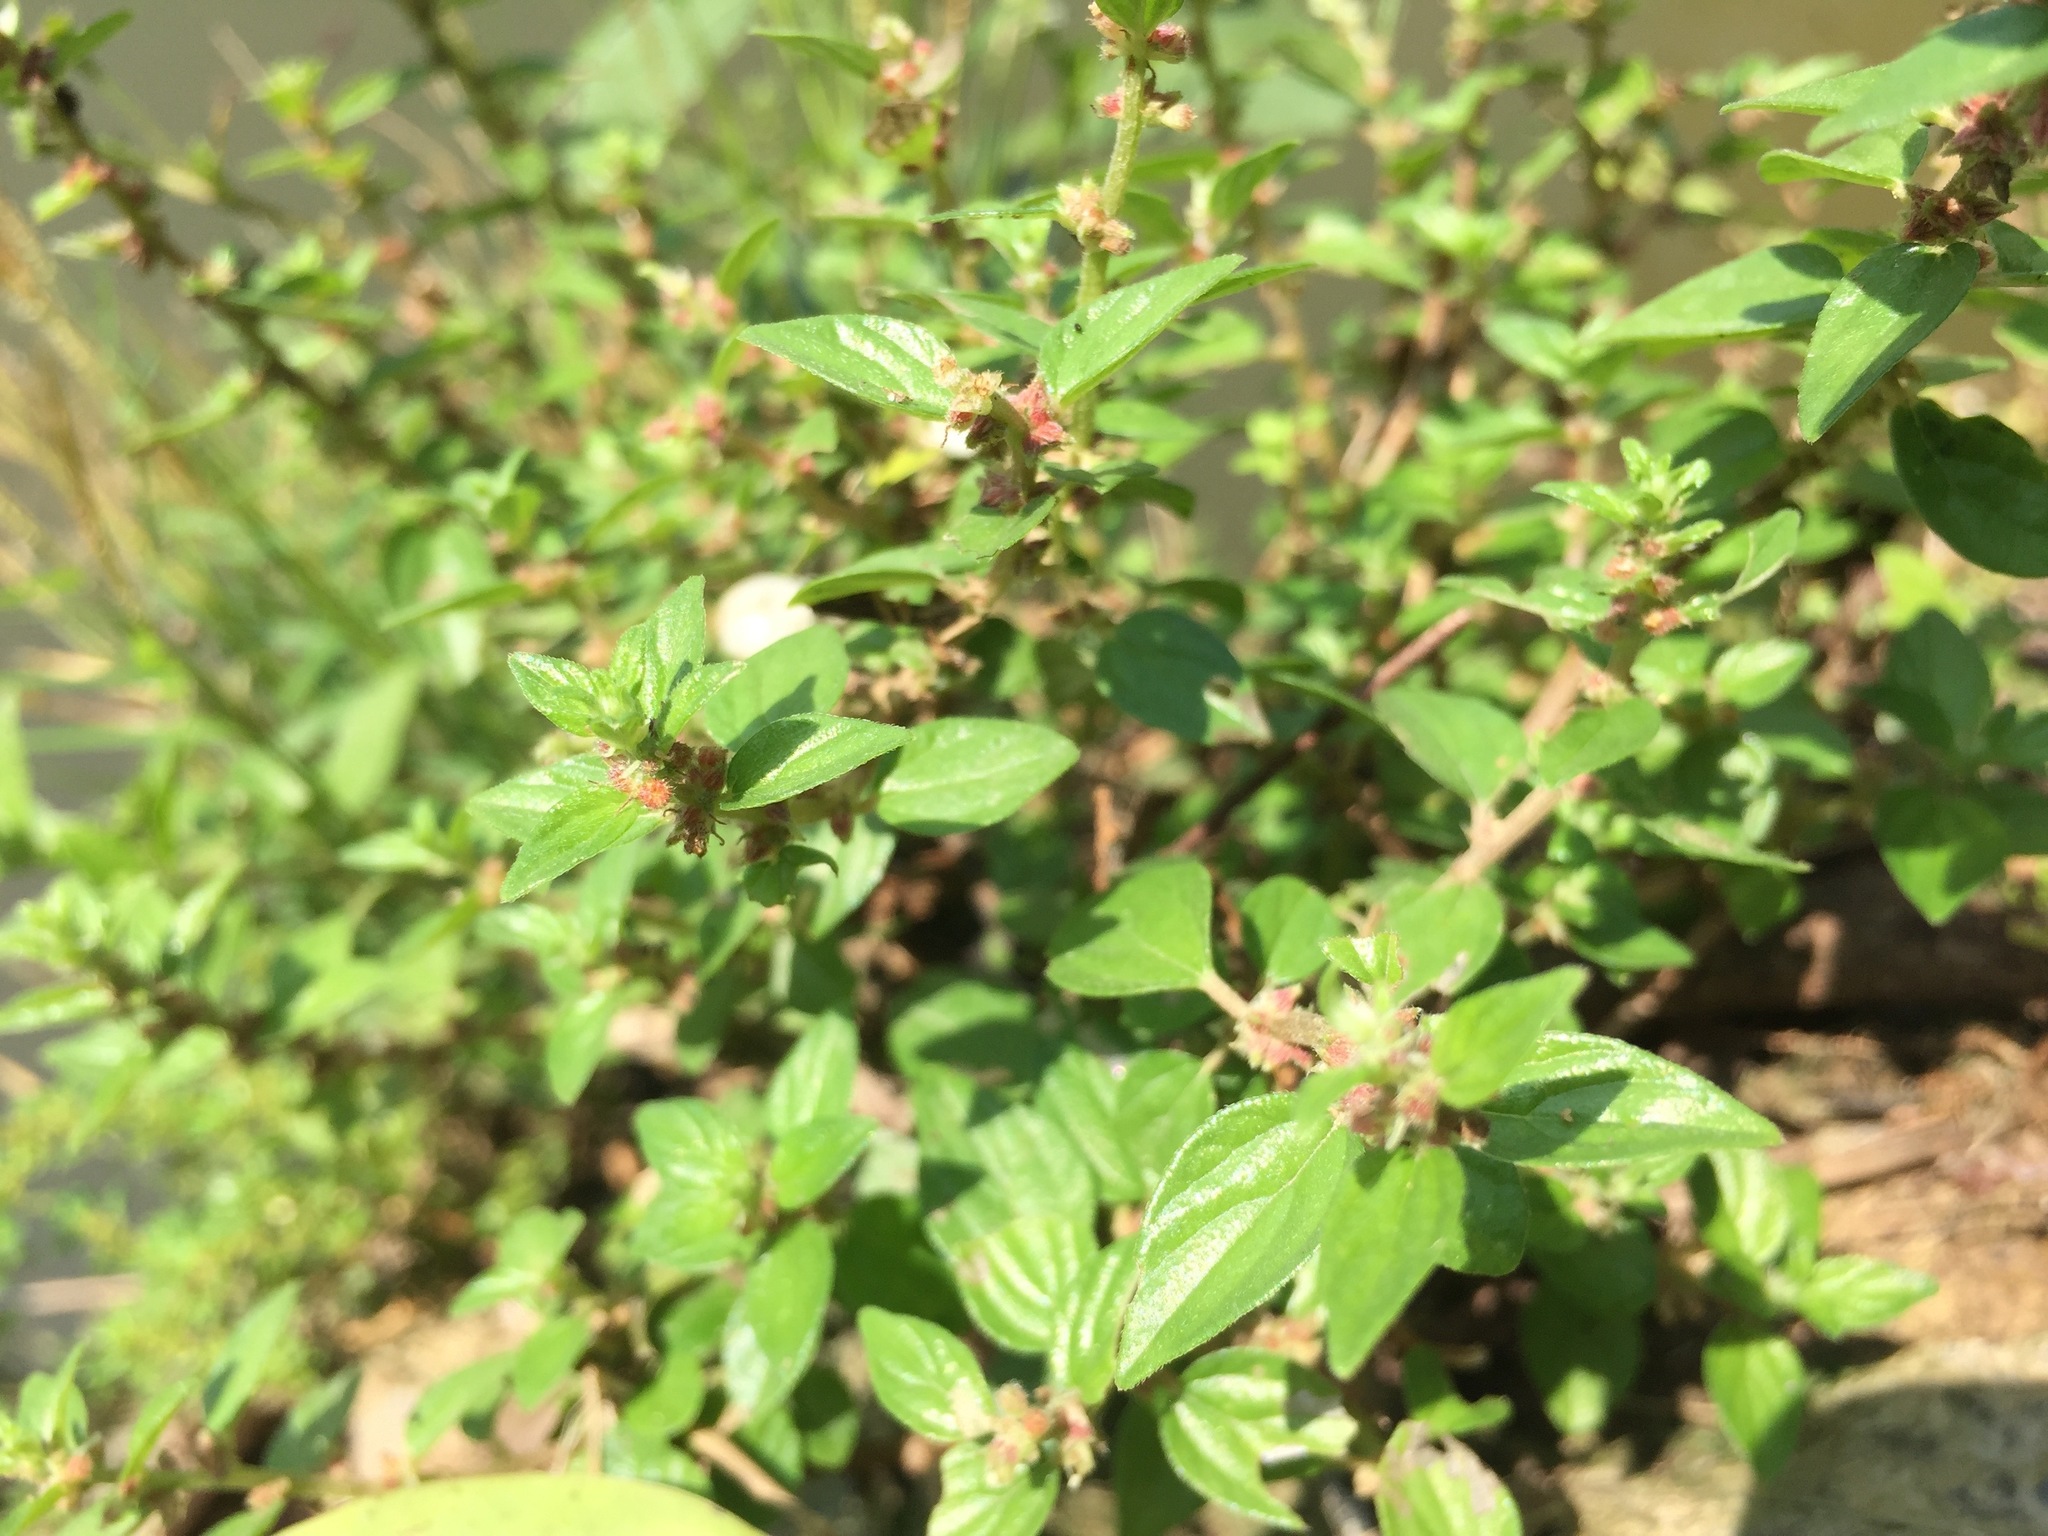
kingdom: Plantae
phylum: Tracheophyta
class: Magnoliopsida
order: Rosales
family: Urticaceae
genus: Pouzolzia
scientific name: Pouzolzia zeylanica
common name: Graceful pouzolzsbush
